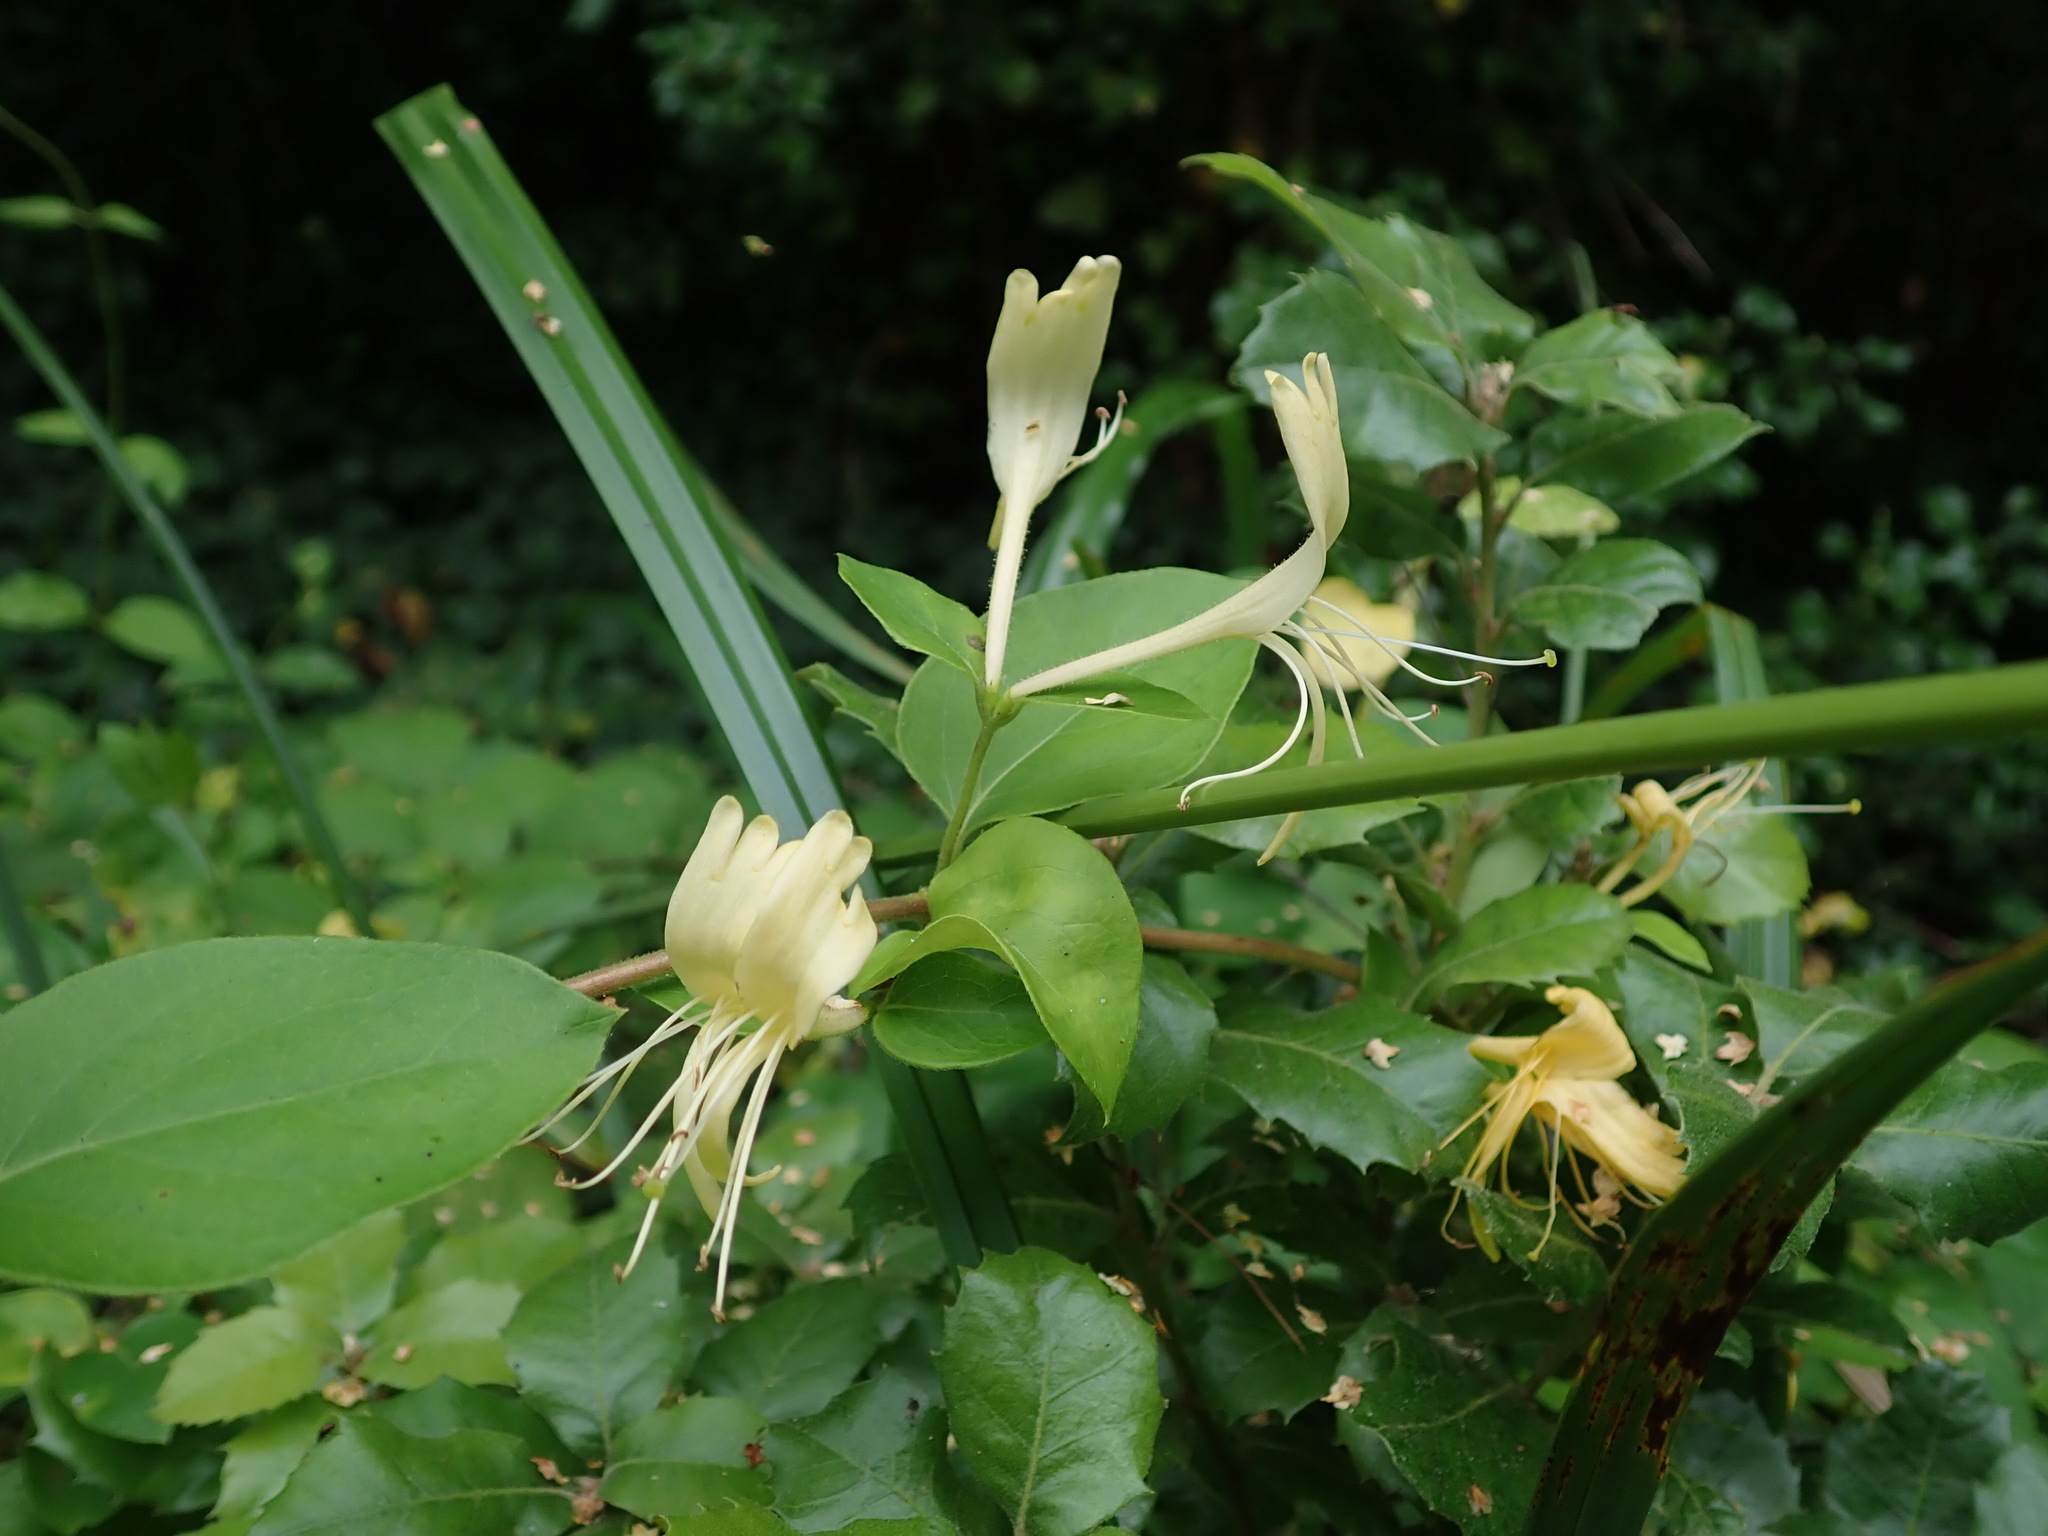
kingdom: Plantae
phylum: Tracheophyta
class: Magnoliopsida
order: Dipsacales
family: Caprifoliaceae
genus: Lonicera
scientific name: Lonicera japonica
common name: Japanese honeysuckle
